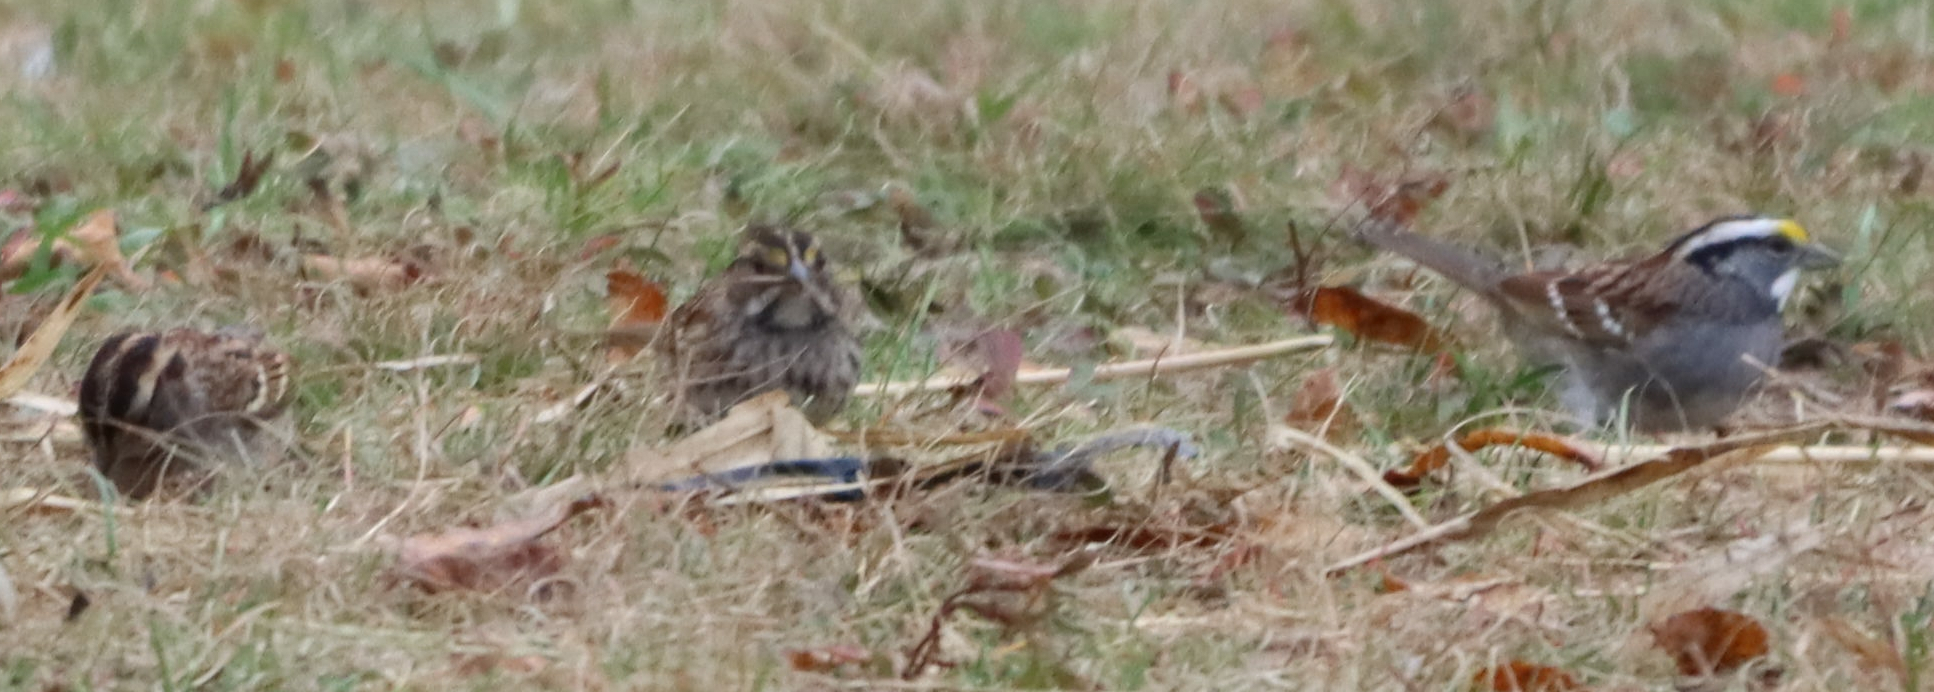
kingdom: Animalia
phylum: Chordata
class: Aves
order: Passeriformes
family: Passerellidae
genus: Zonotrichia
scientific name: Zonotrichia albicollis
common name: White-throated sparrow
